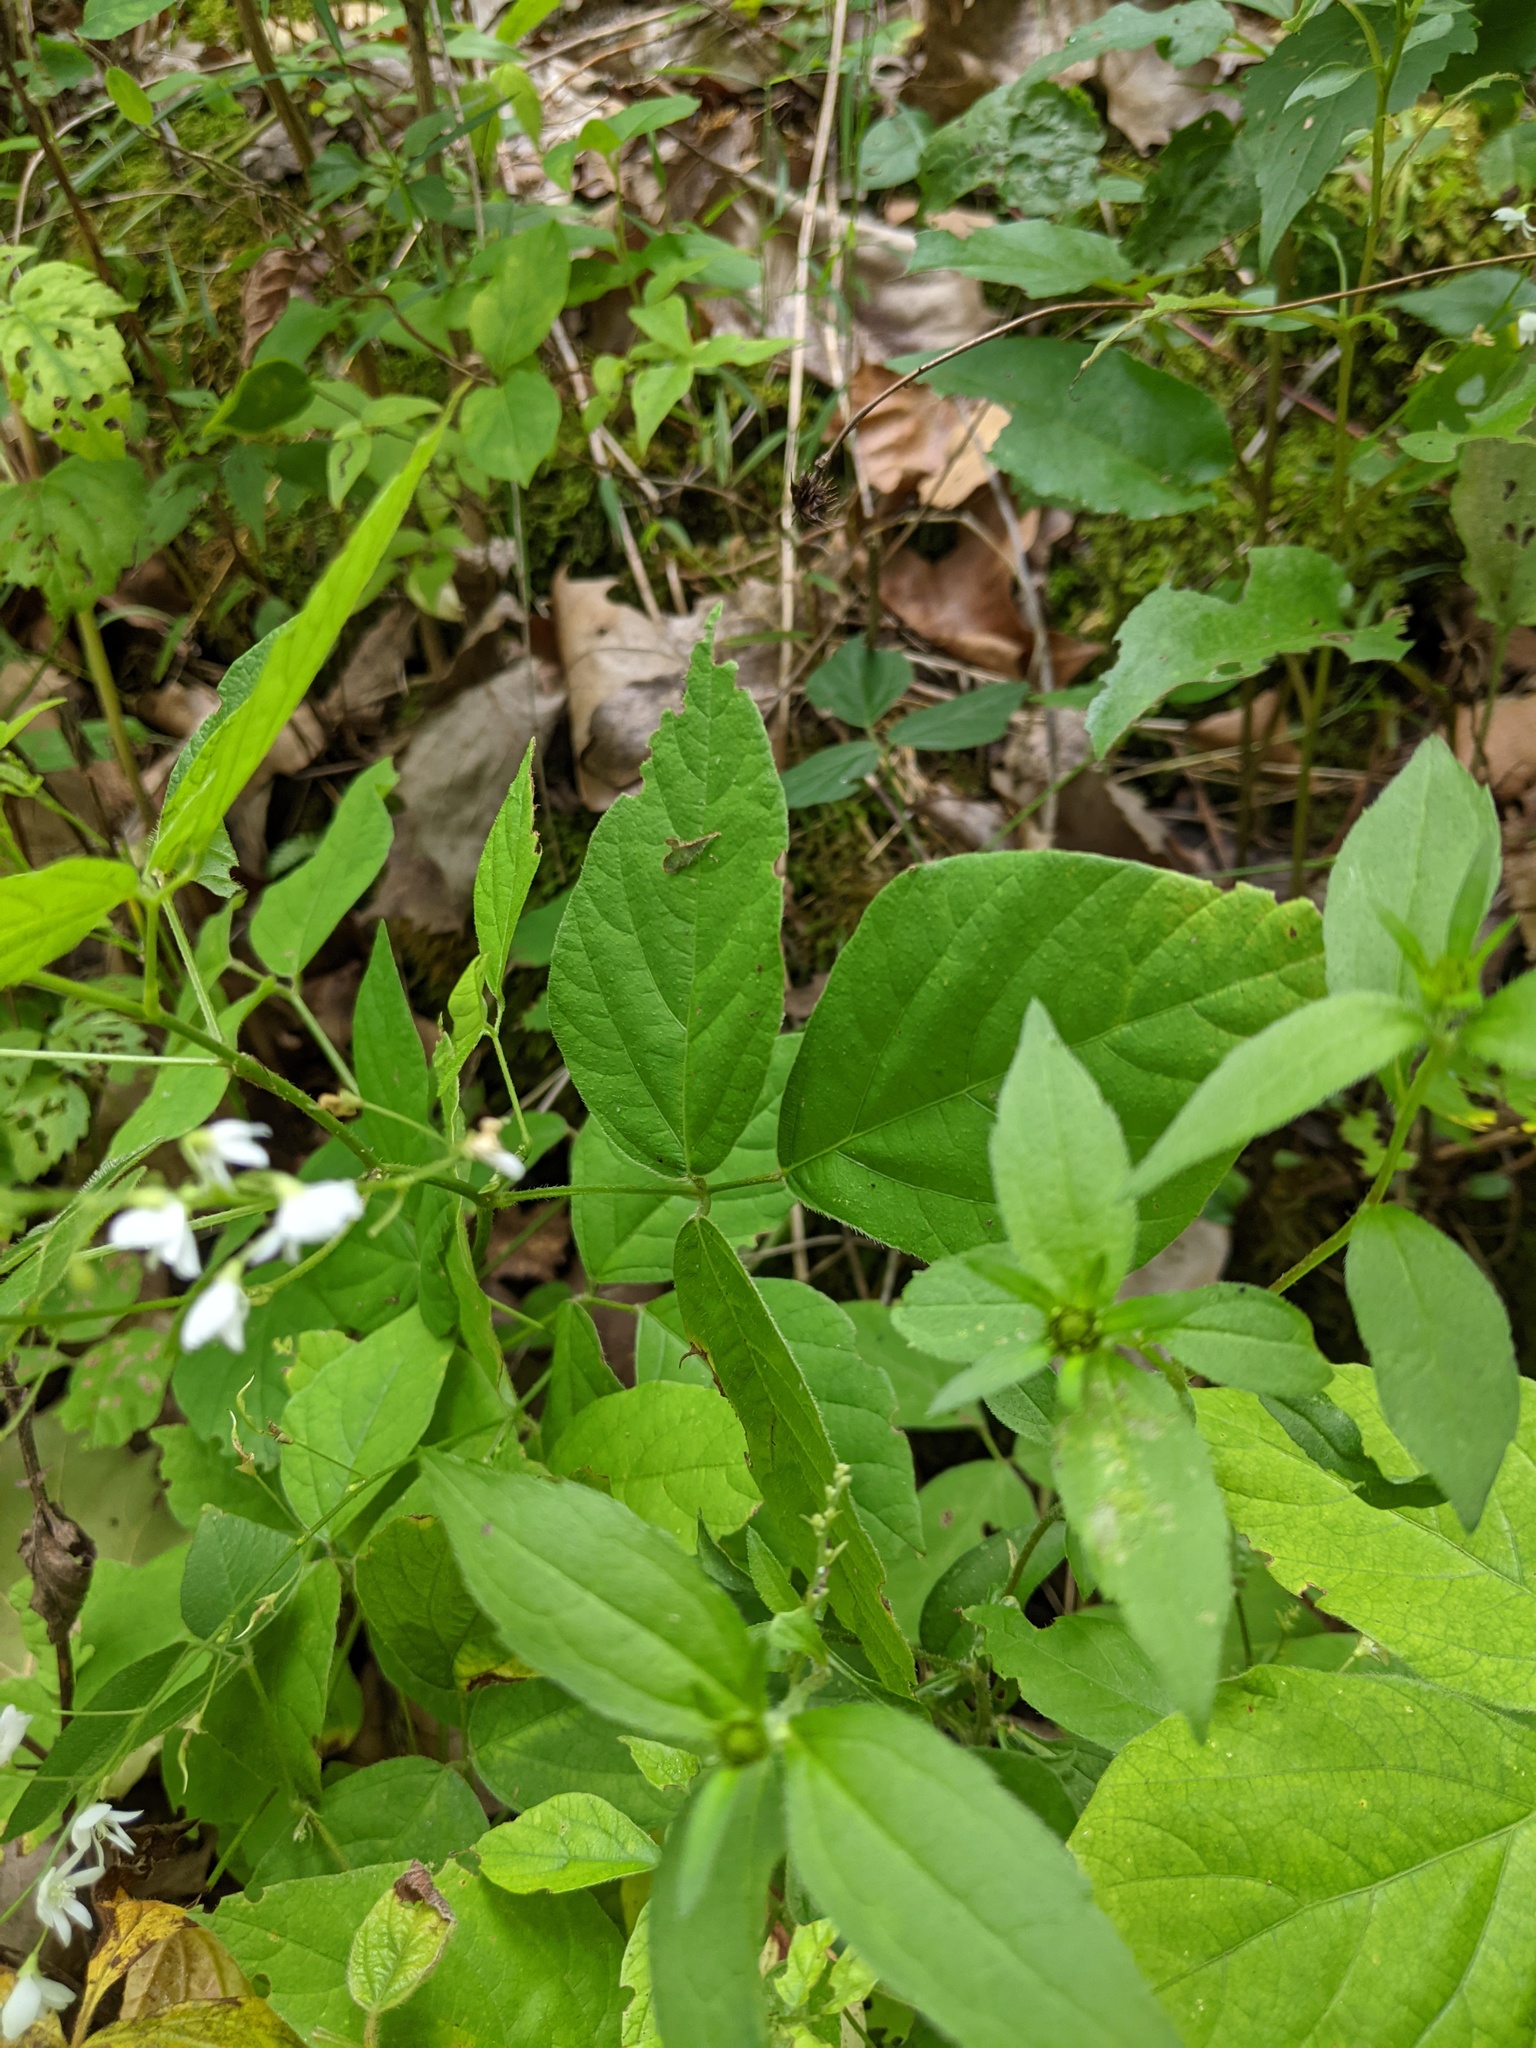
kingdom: Plantae
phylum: Tracheophyta
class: Magnoliopsida
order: Fabales
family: Fabaceae
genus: Hylodesmum
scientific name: Hylodesmum pauciflorum
